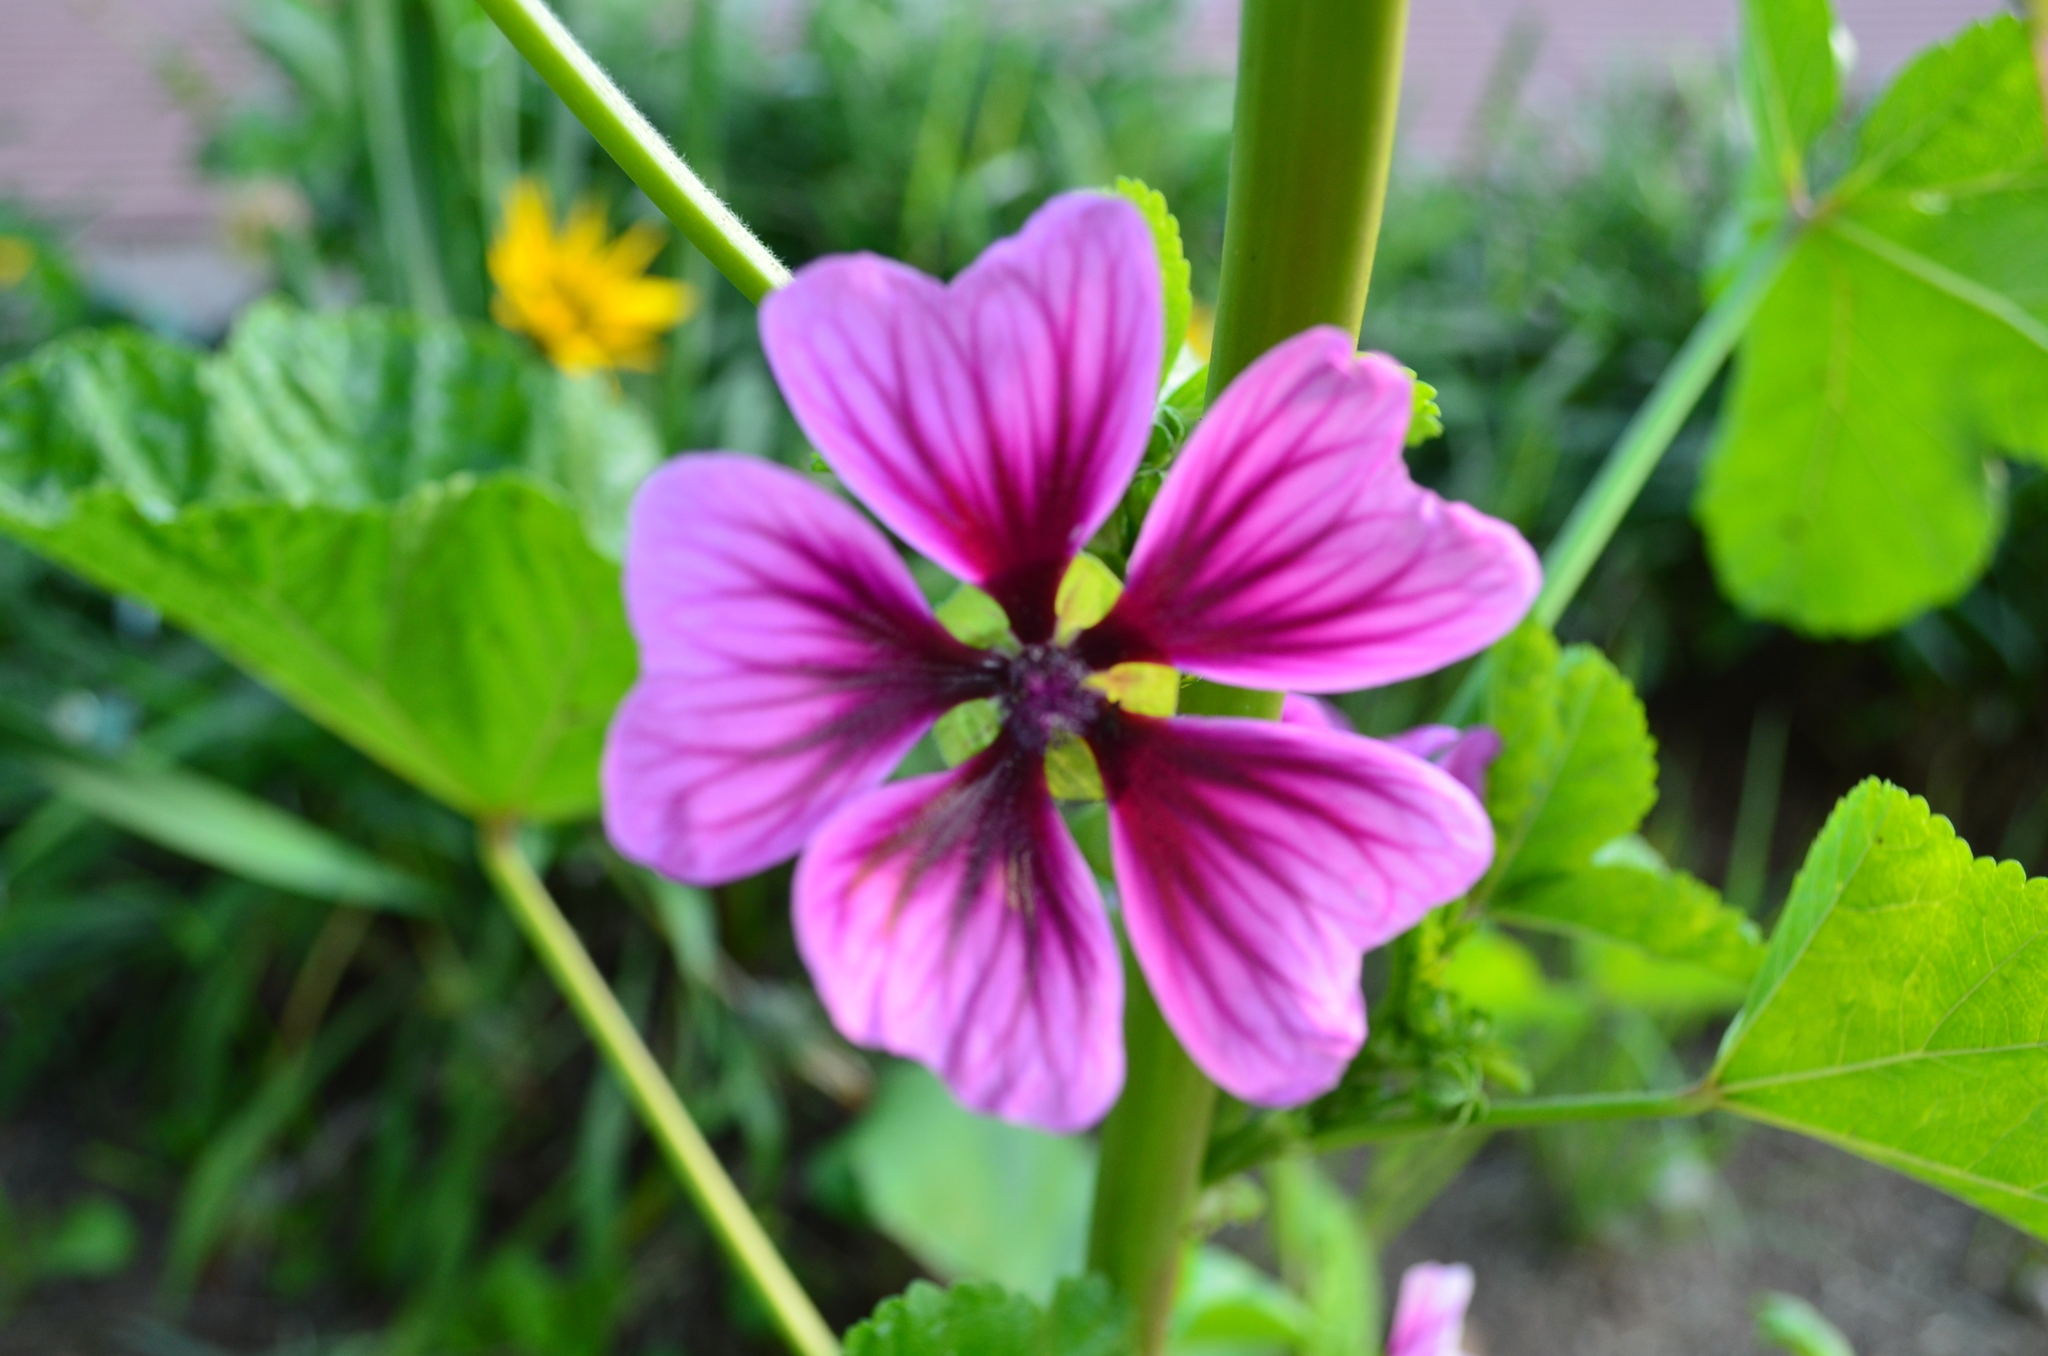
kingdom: Plantae
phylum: Tracheophyta
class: Magnoliopsida
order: Malvales
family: Malvaceae
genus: Malva
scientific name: Malva sylvestris
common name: Common mallow
